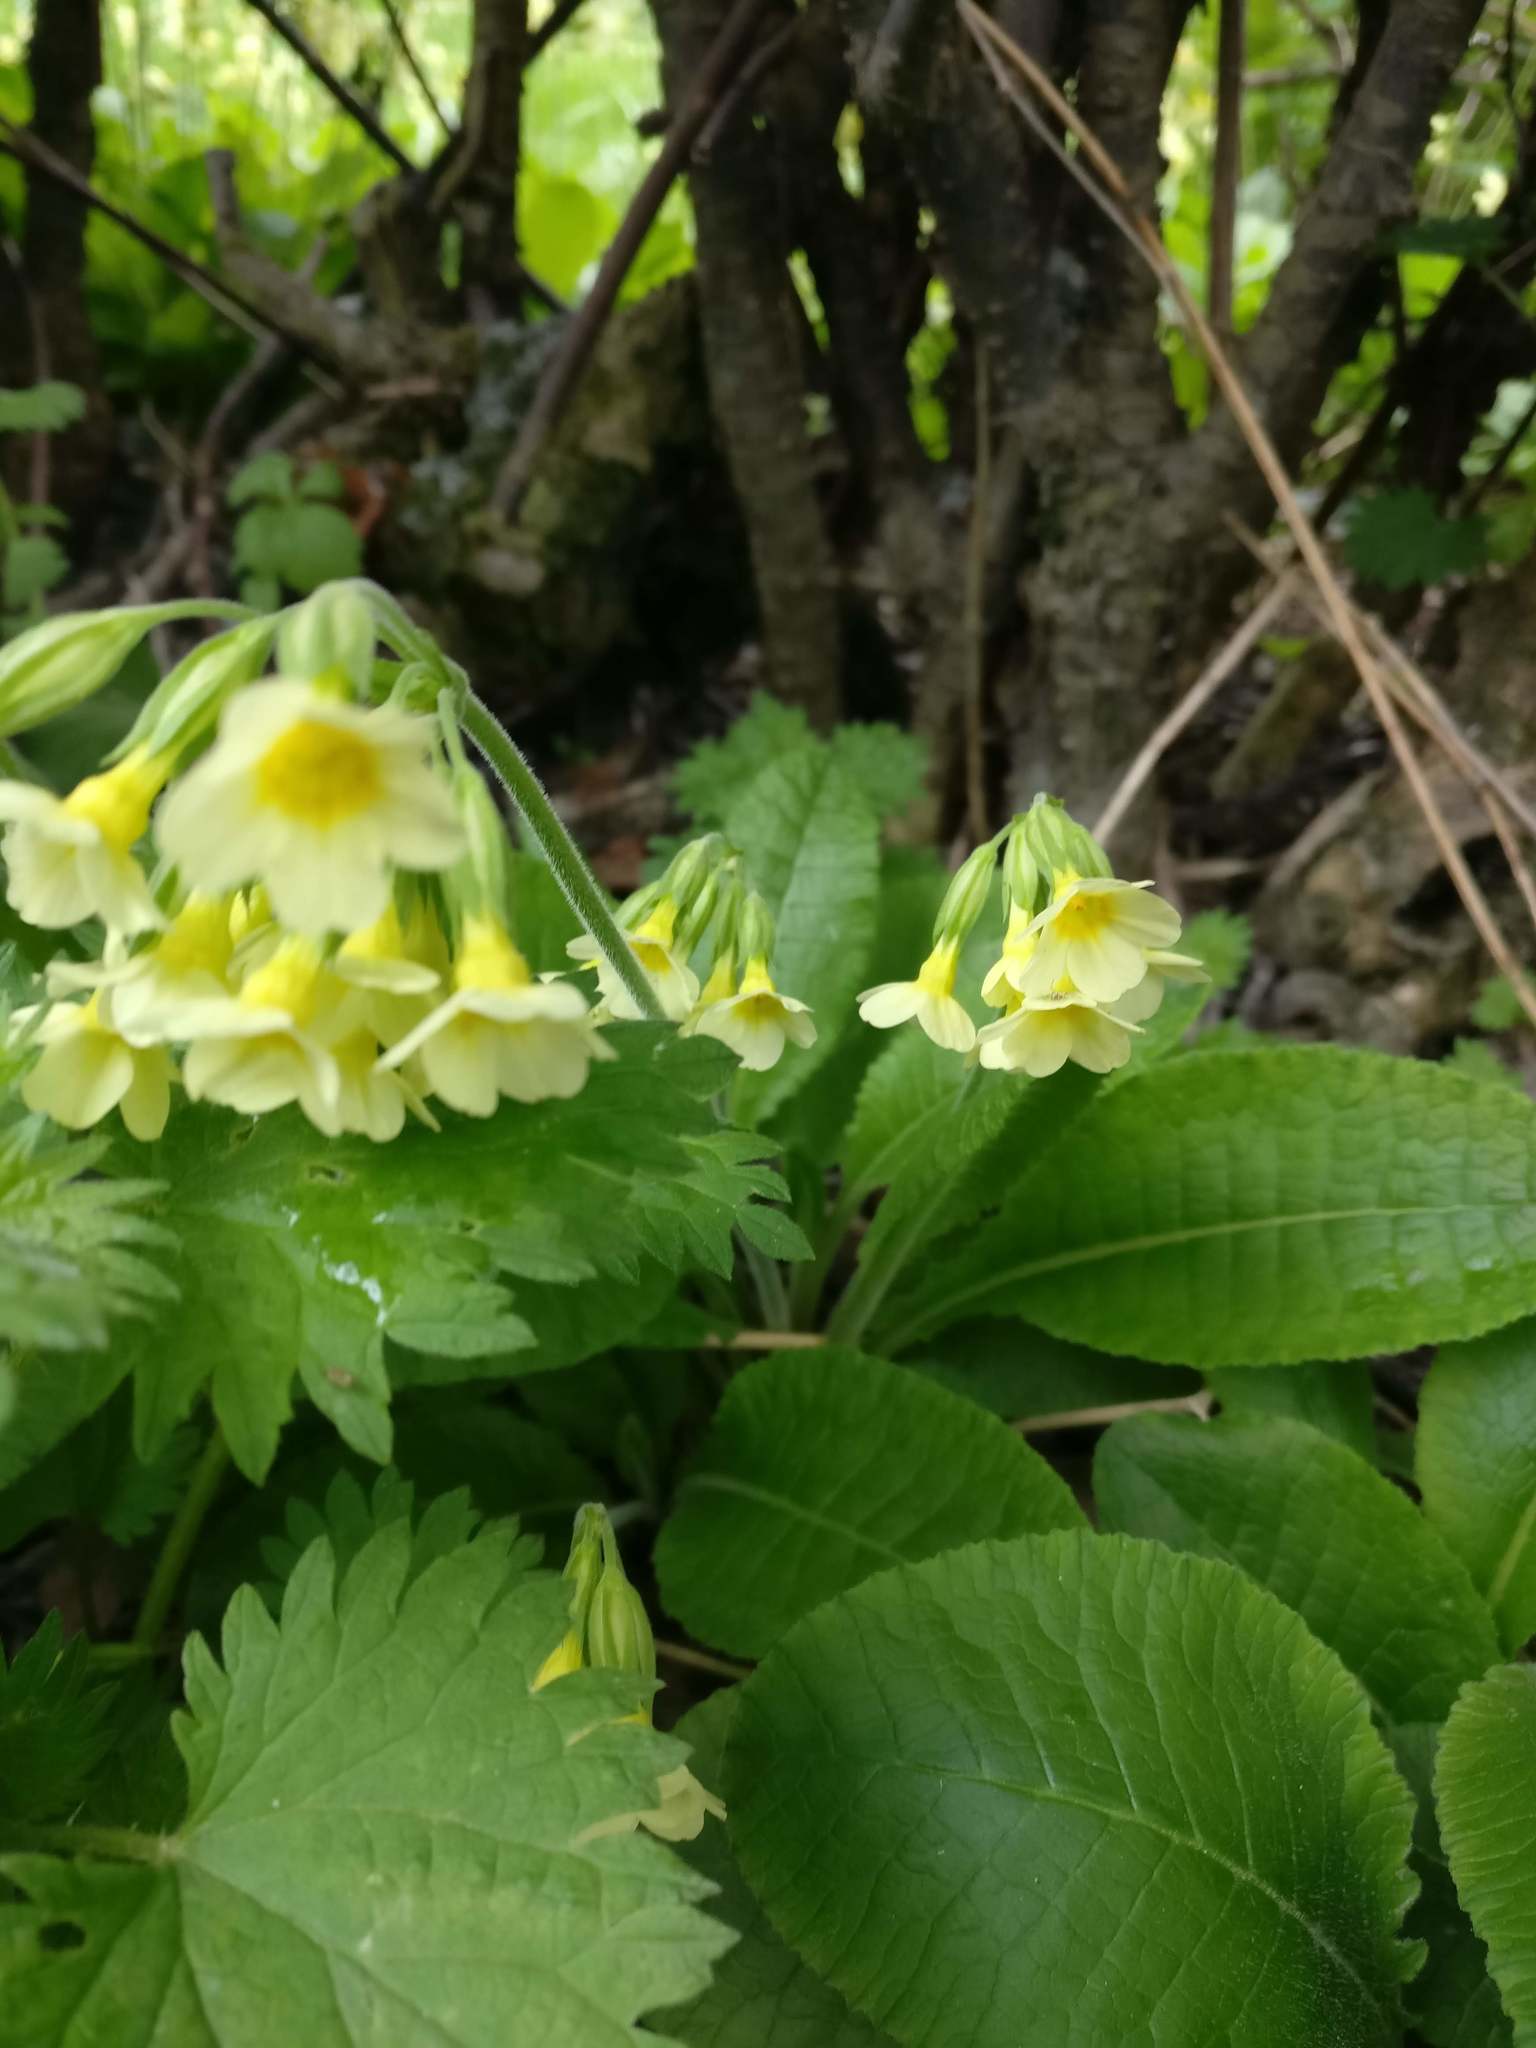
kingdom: Plantae
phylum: Tracheophyta
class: Magnoliopsida
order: Ericales
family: Primulaceae
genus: Primula
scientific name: Primula elatior
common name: Oxlip
